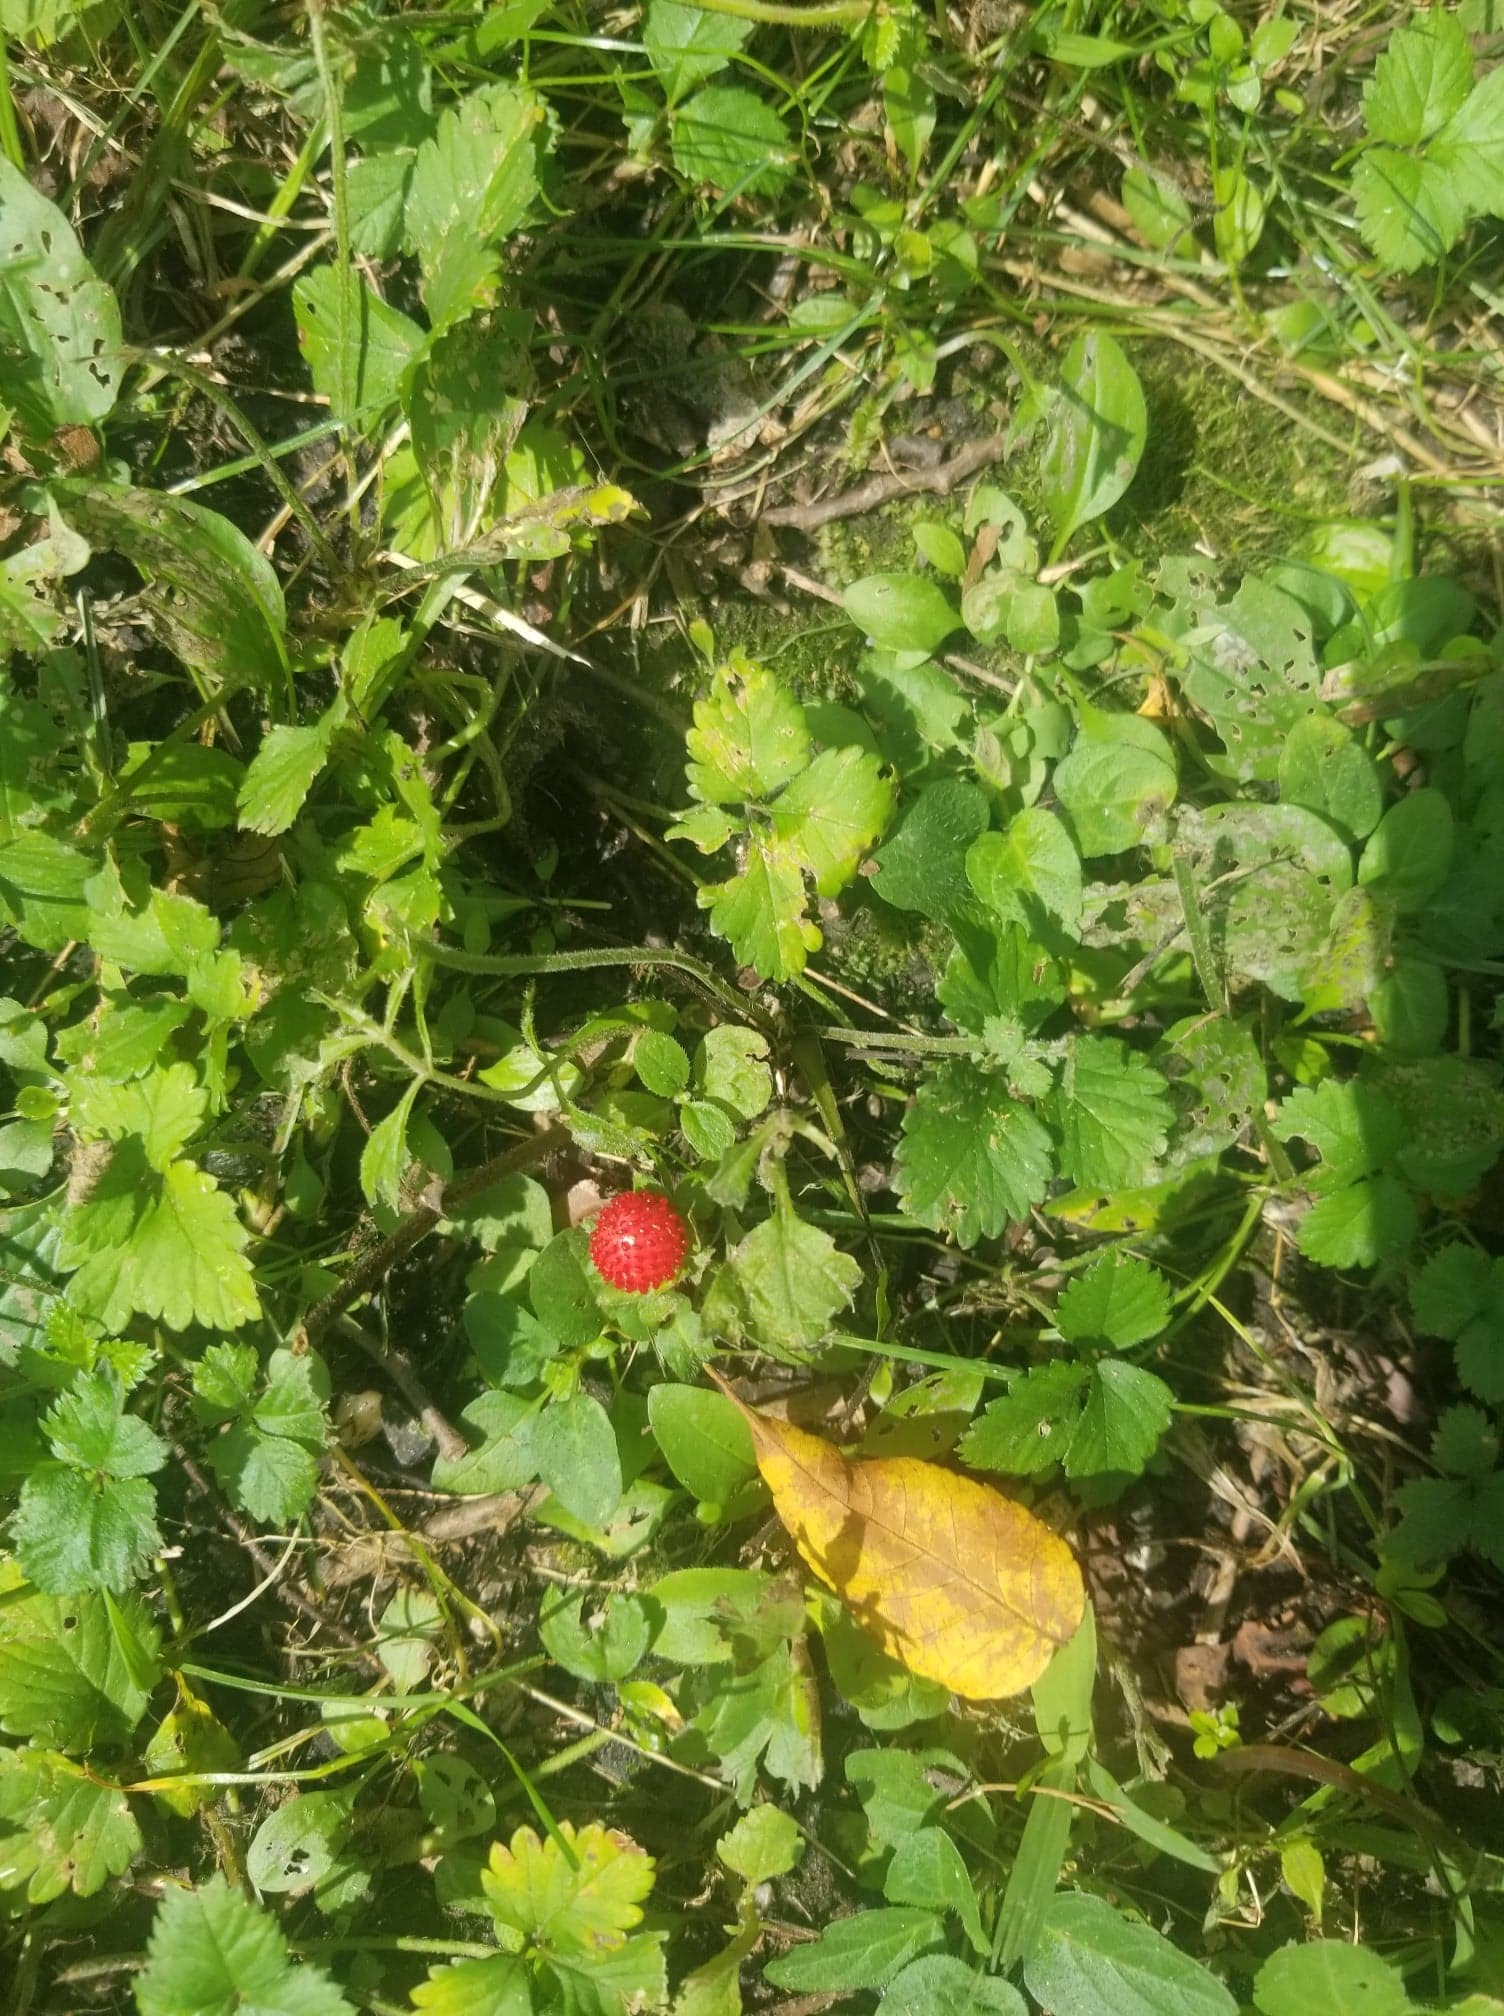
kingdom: Plantae
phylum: Tracheophyta
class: Magnoliopsida
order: Rosales
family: Rosaceae
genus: Potentilla
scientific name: Potentilla indica
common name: Yellow-flowered strawberry
